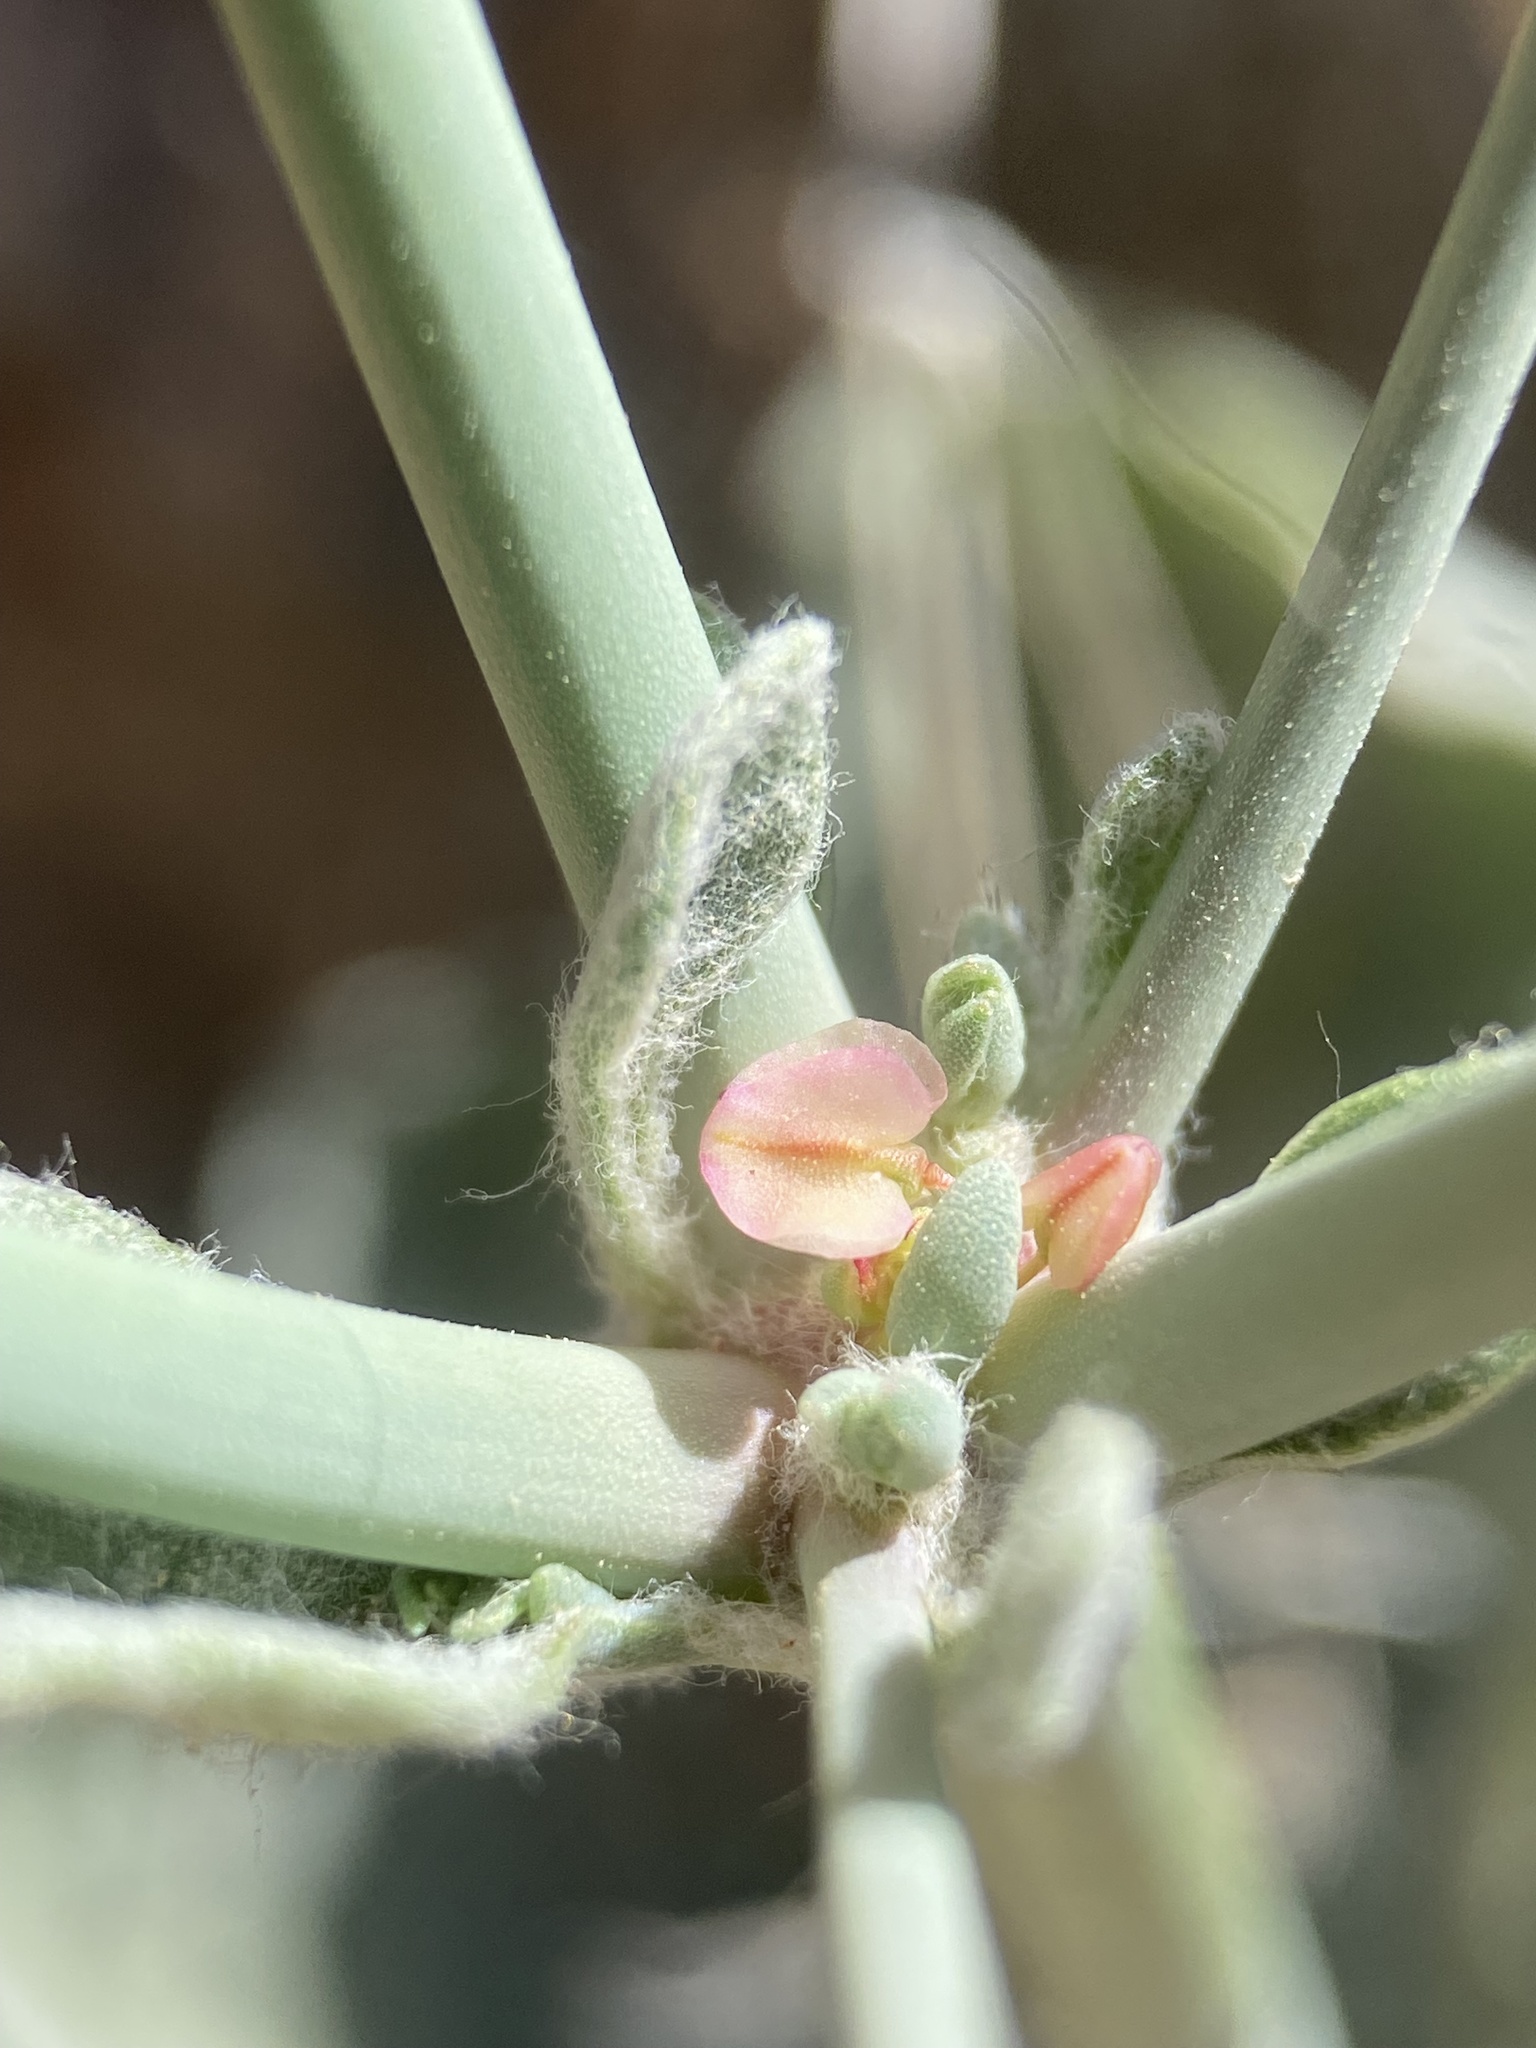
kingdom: Plantae
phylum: Tracheophyta
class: Magnoliopsida
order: Caryophyllales
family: Polygonaceae
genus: Eriogonum
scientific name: Eriogonum hookeri
